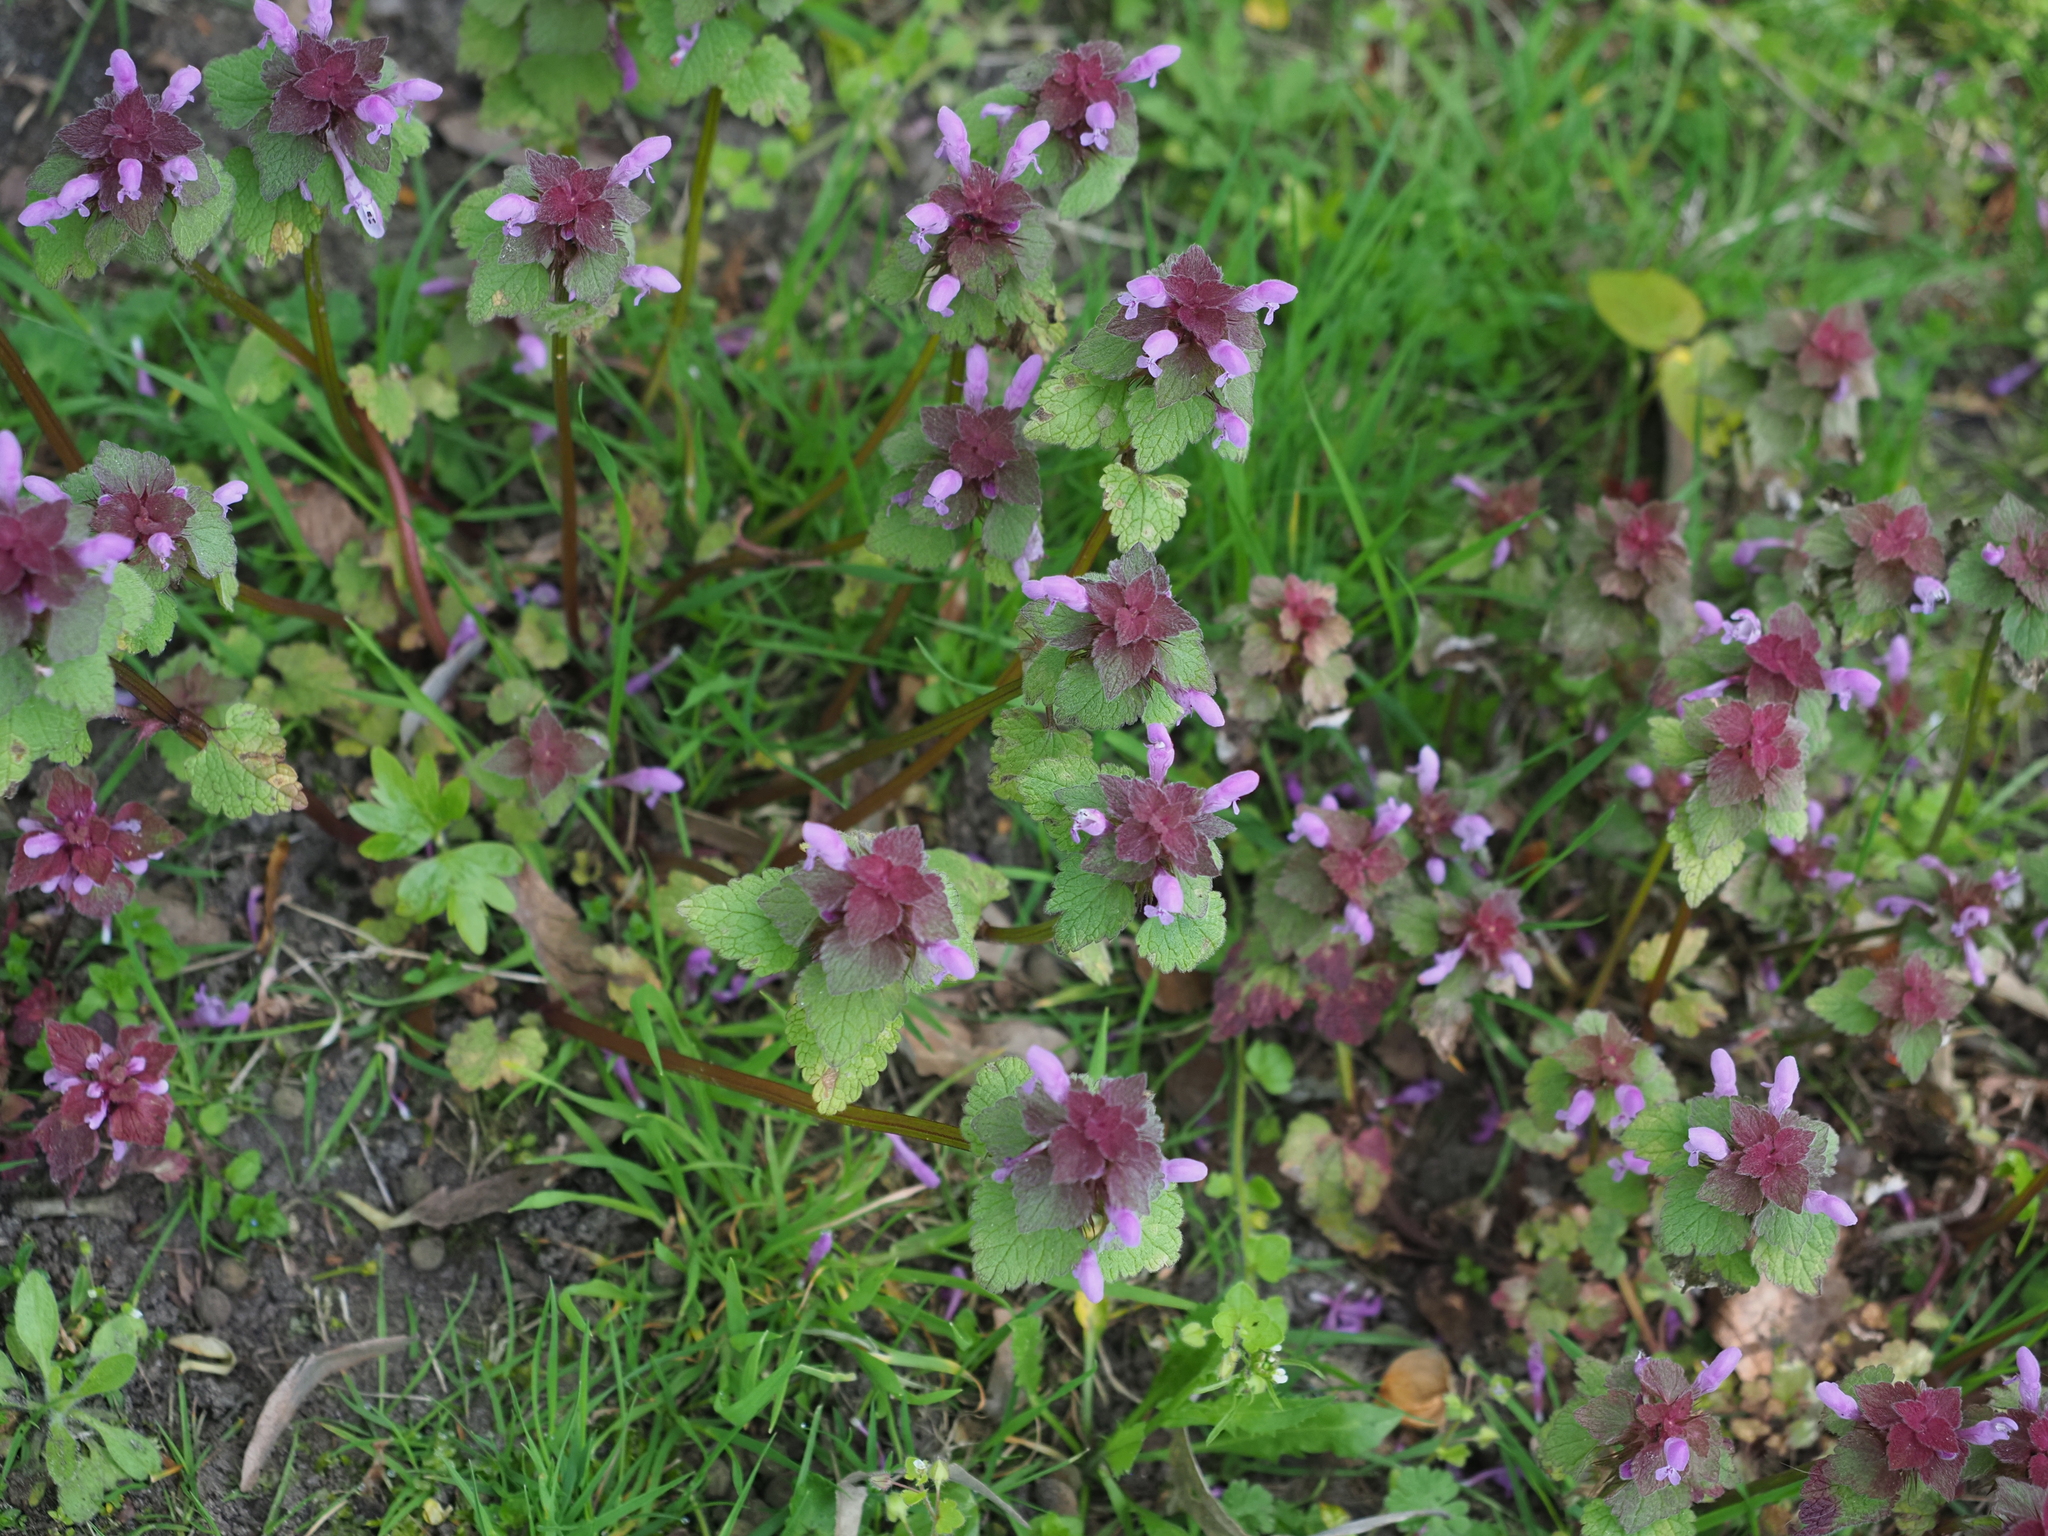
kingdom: Plantae
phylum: Tracheophyta
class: Magnoliopsida
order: Lamiales
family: Lamiaceae
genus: Lamium
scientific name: Lamium purpureum
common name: Red dead-nettle
